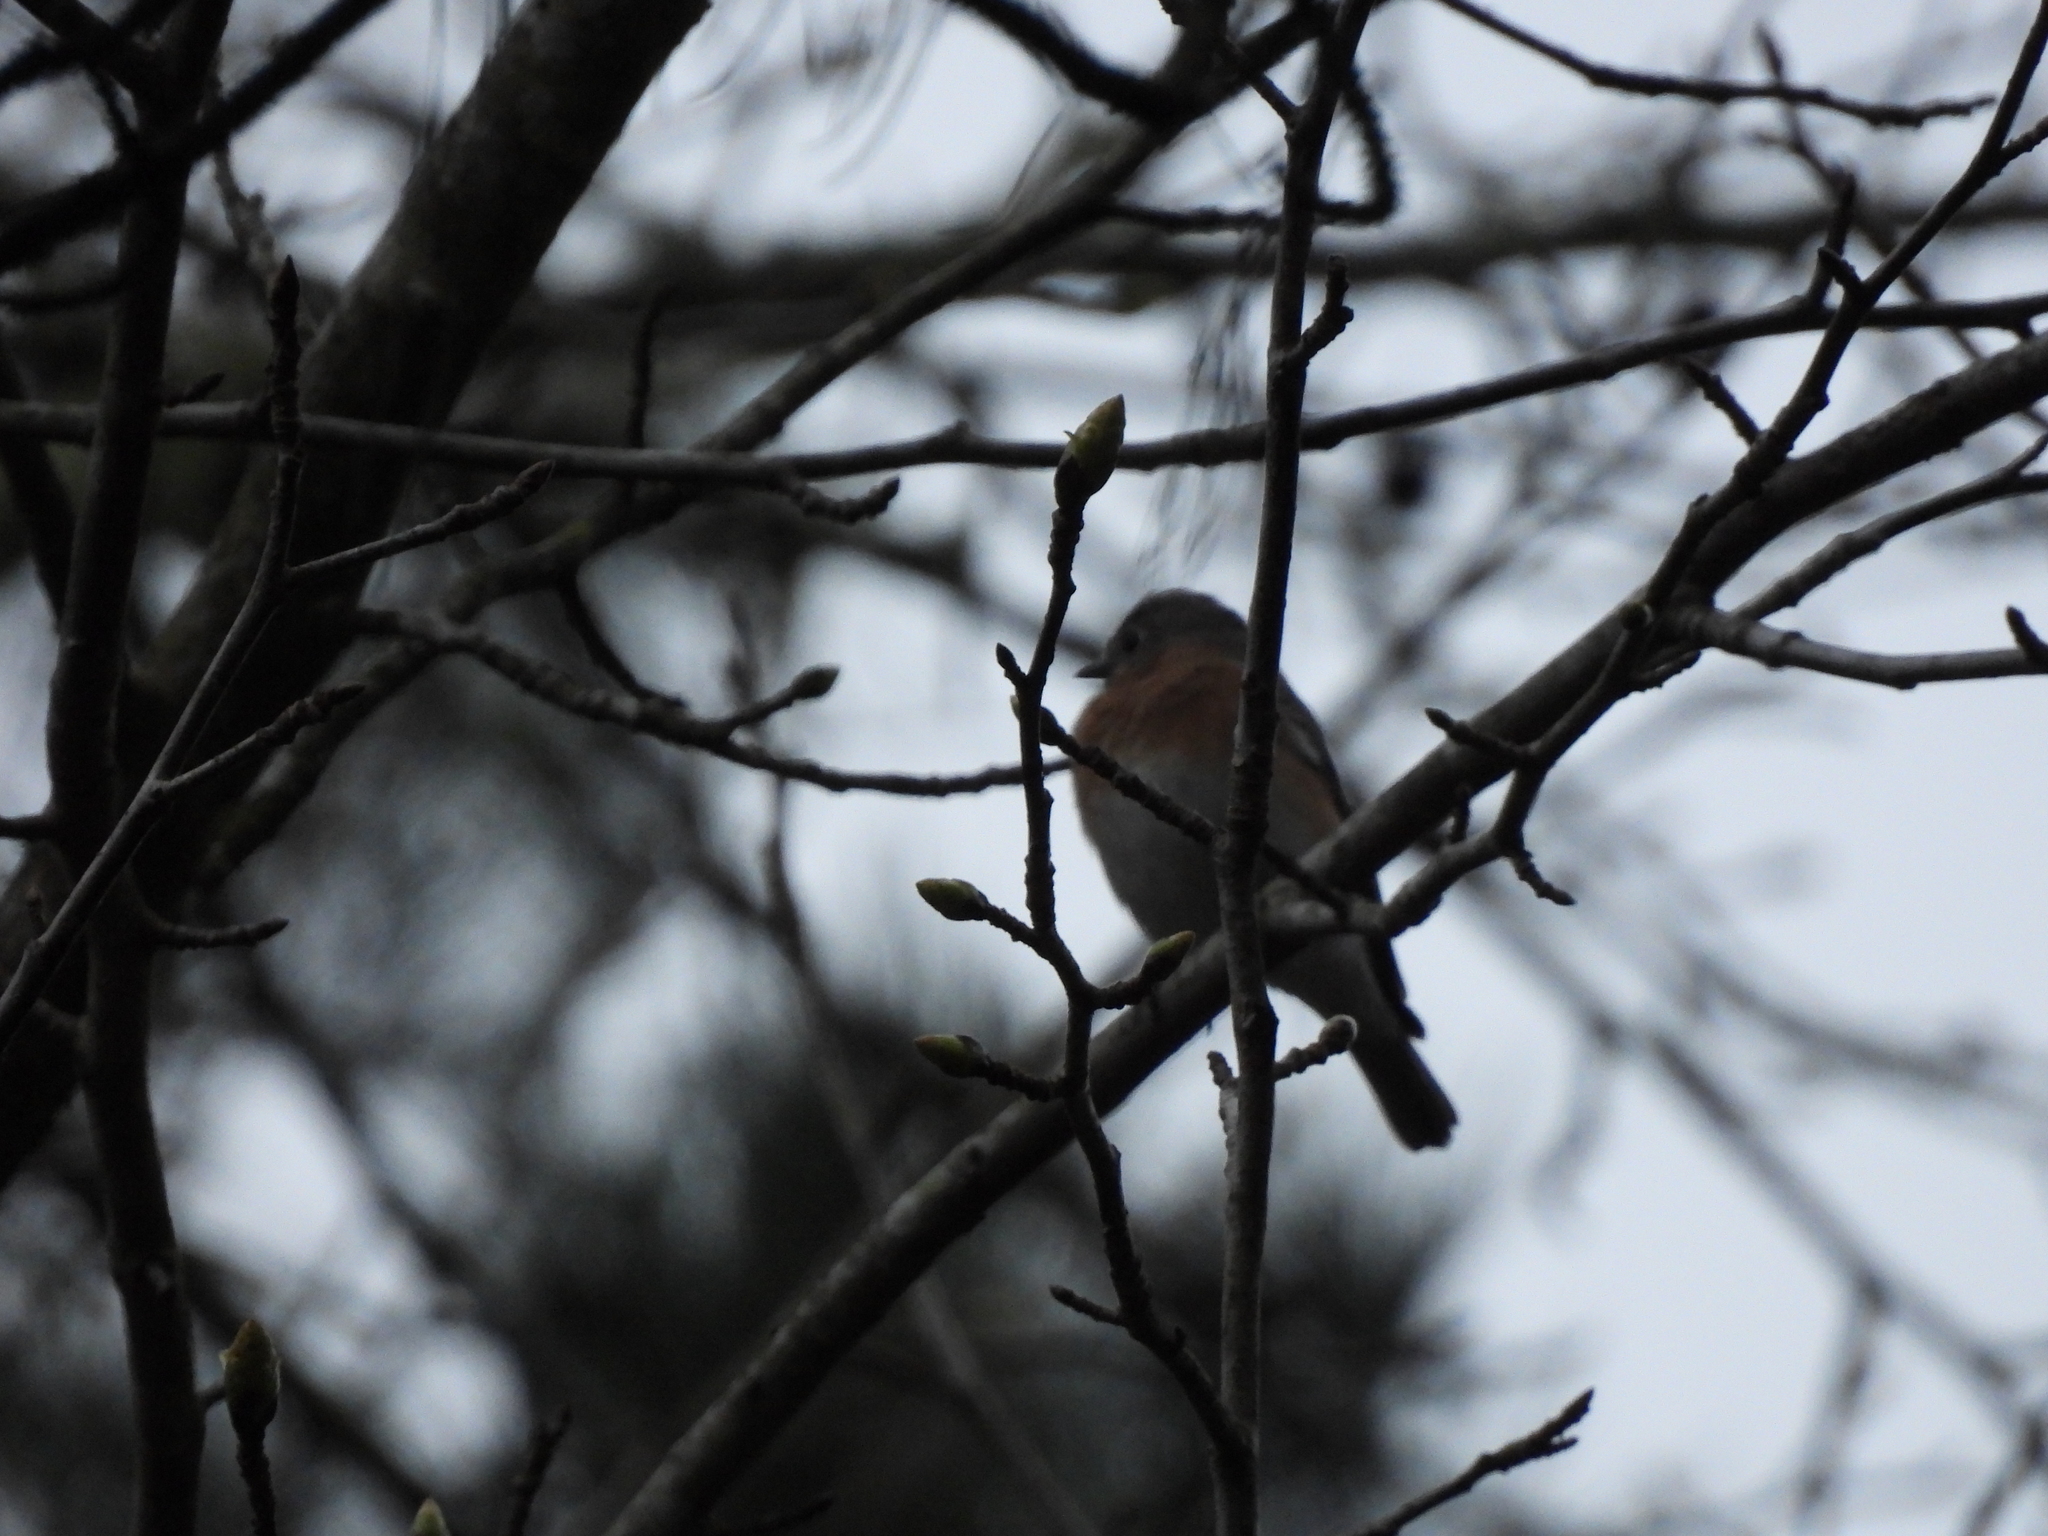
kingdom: Animalia
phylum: Chordata
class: Aves
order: Passeriformes
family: Turdidae
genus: Sialia
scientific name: Sialia sialis
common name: Eastern bluebird
